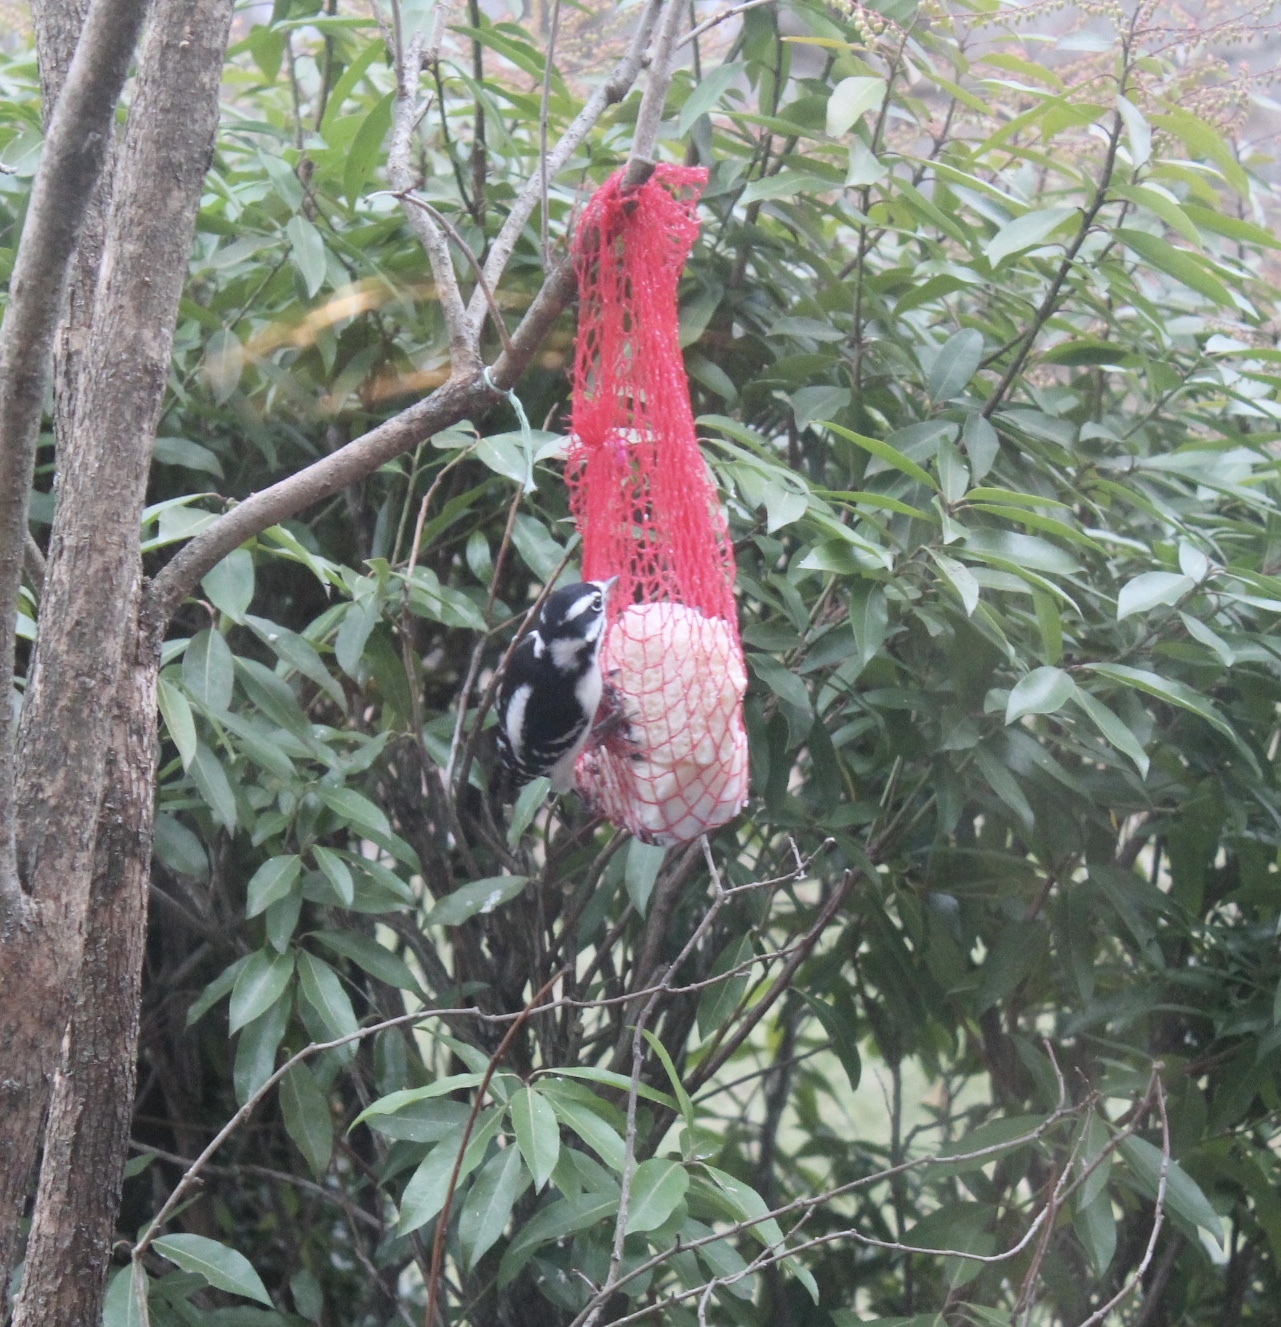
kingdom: Animalia
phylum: Chordata
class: Aves
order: Piciformes
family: Picidae
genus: Dryobates
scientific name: Dryobates pubescens
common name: Downy woodpecker
